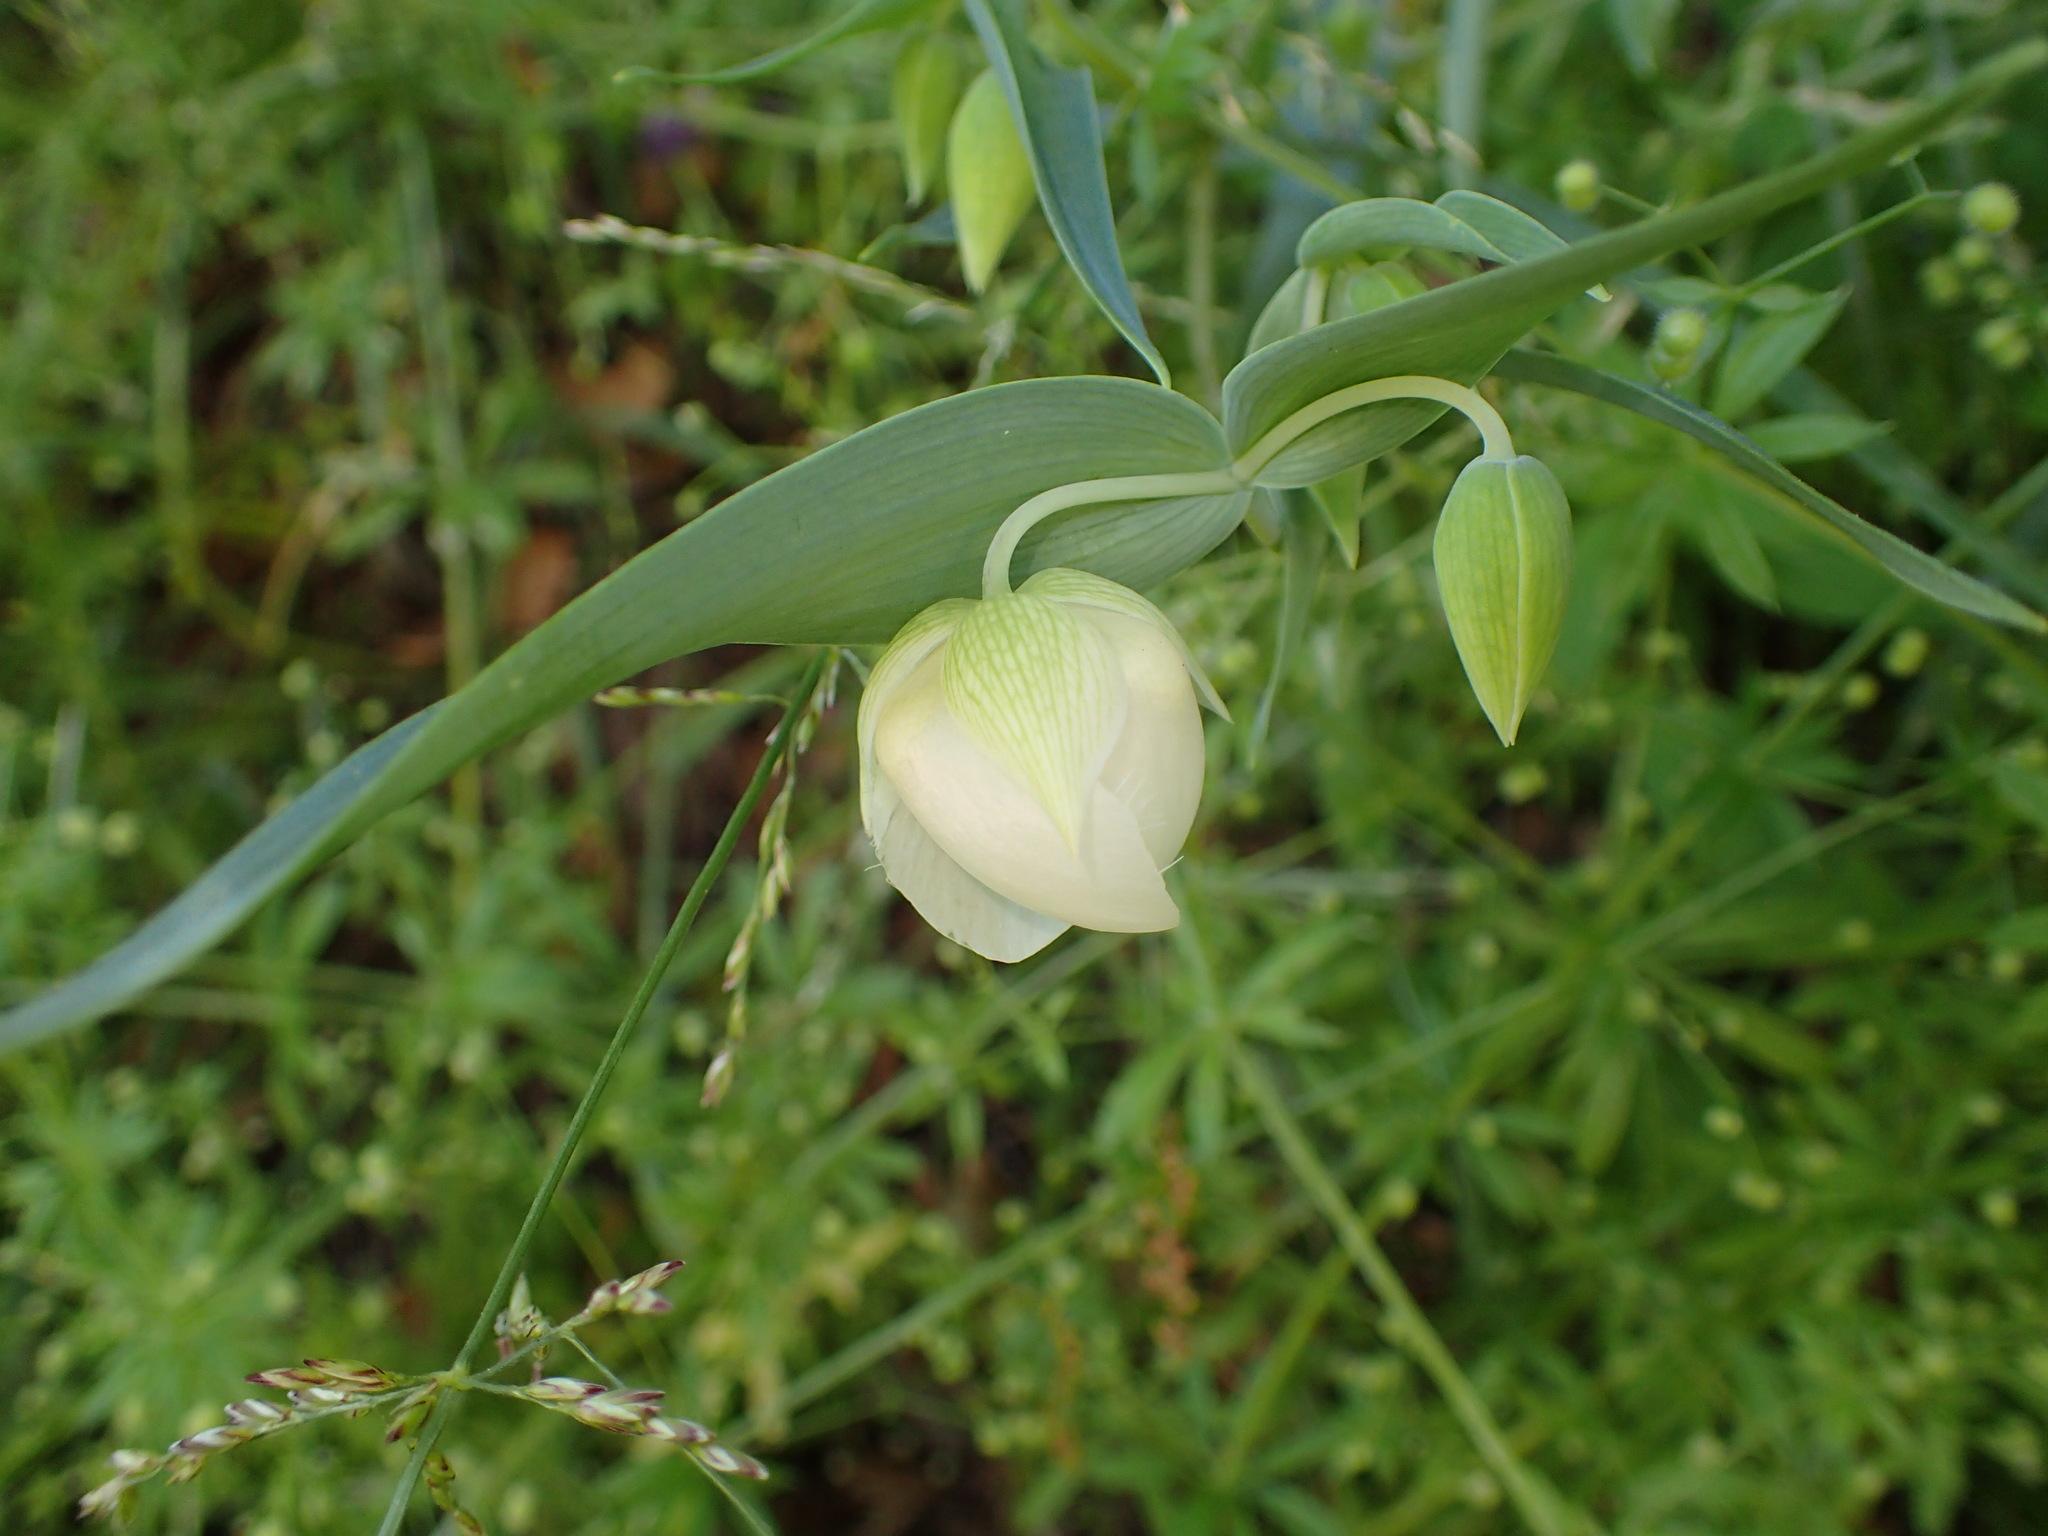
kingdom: Plantae
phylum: Tracheophyta
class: Liliopsida
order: Liliales
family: Liliaceae
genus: Calochortus
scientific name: Calochortus albus
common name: Fairy-lantern
